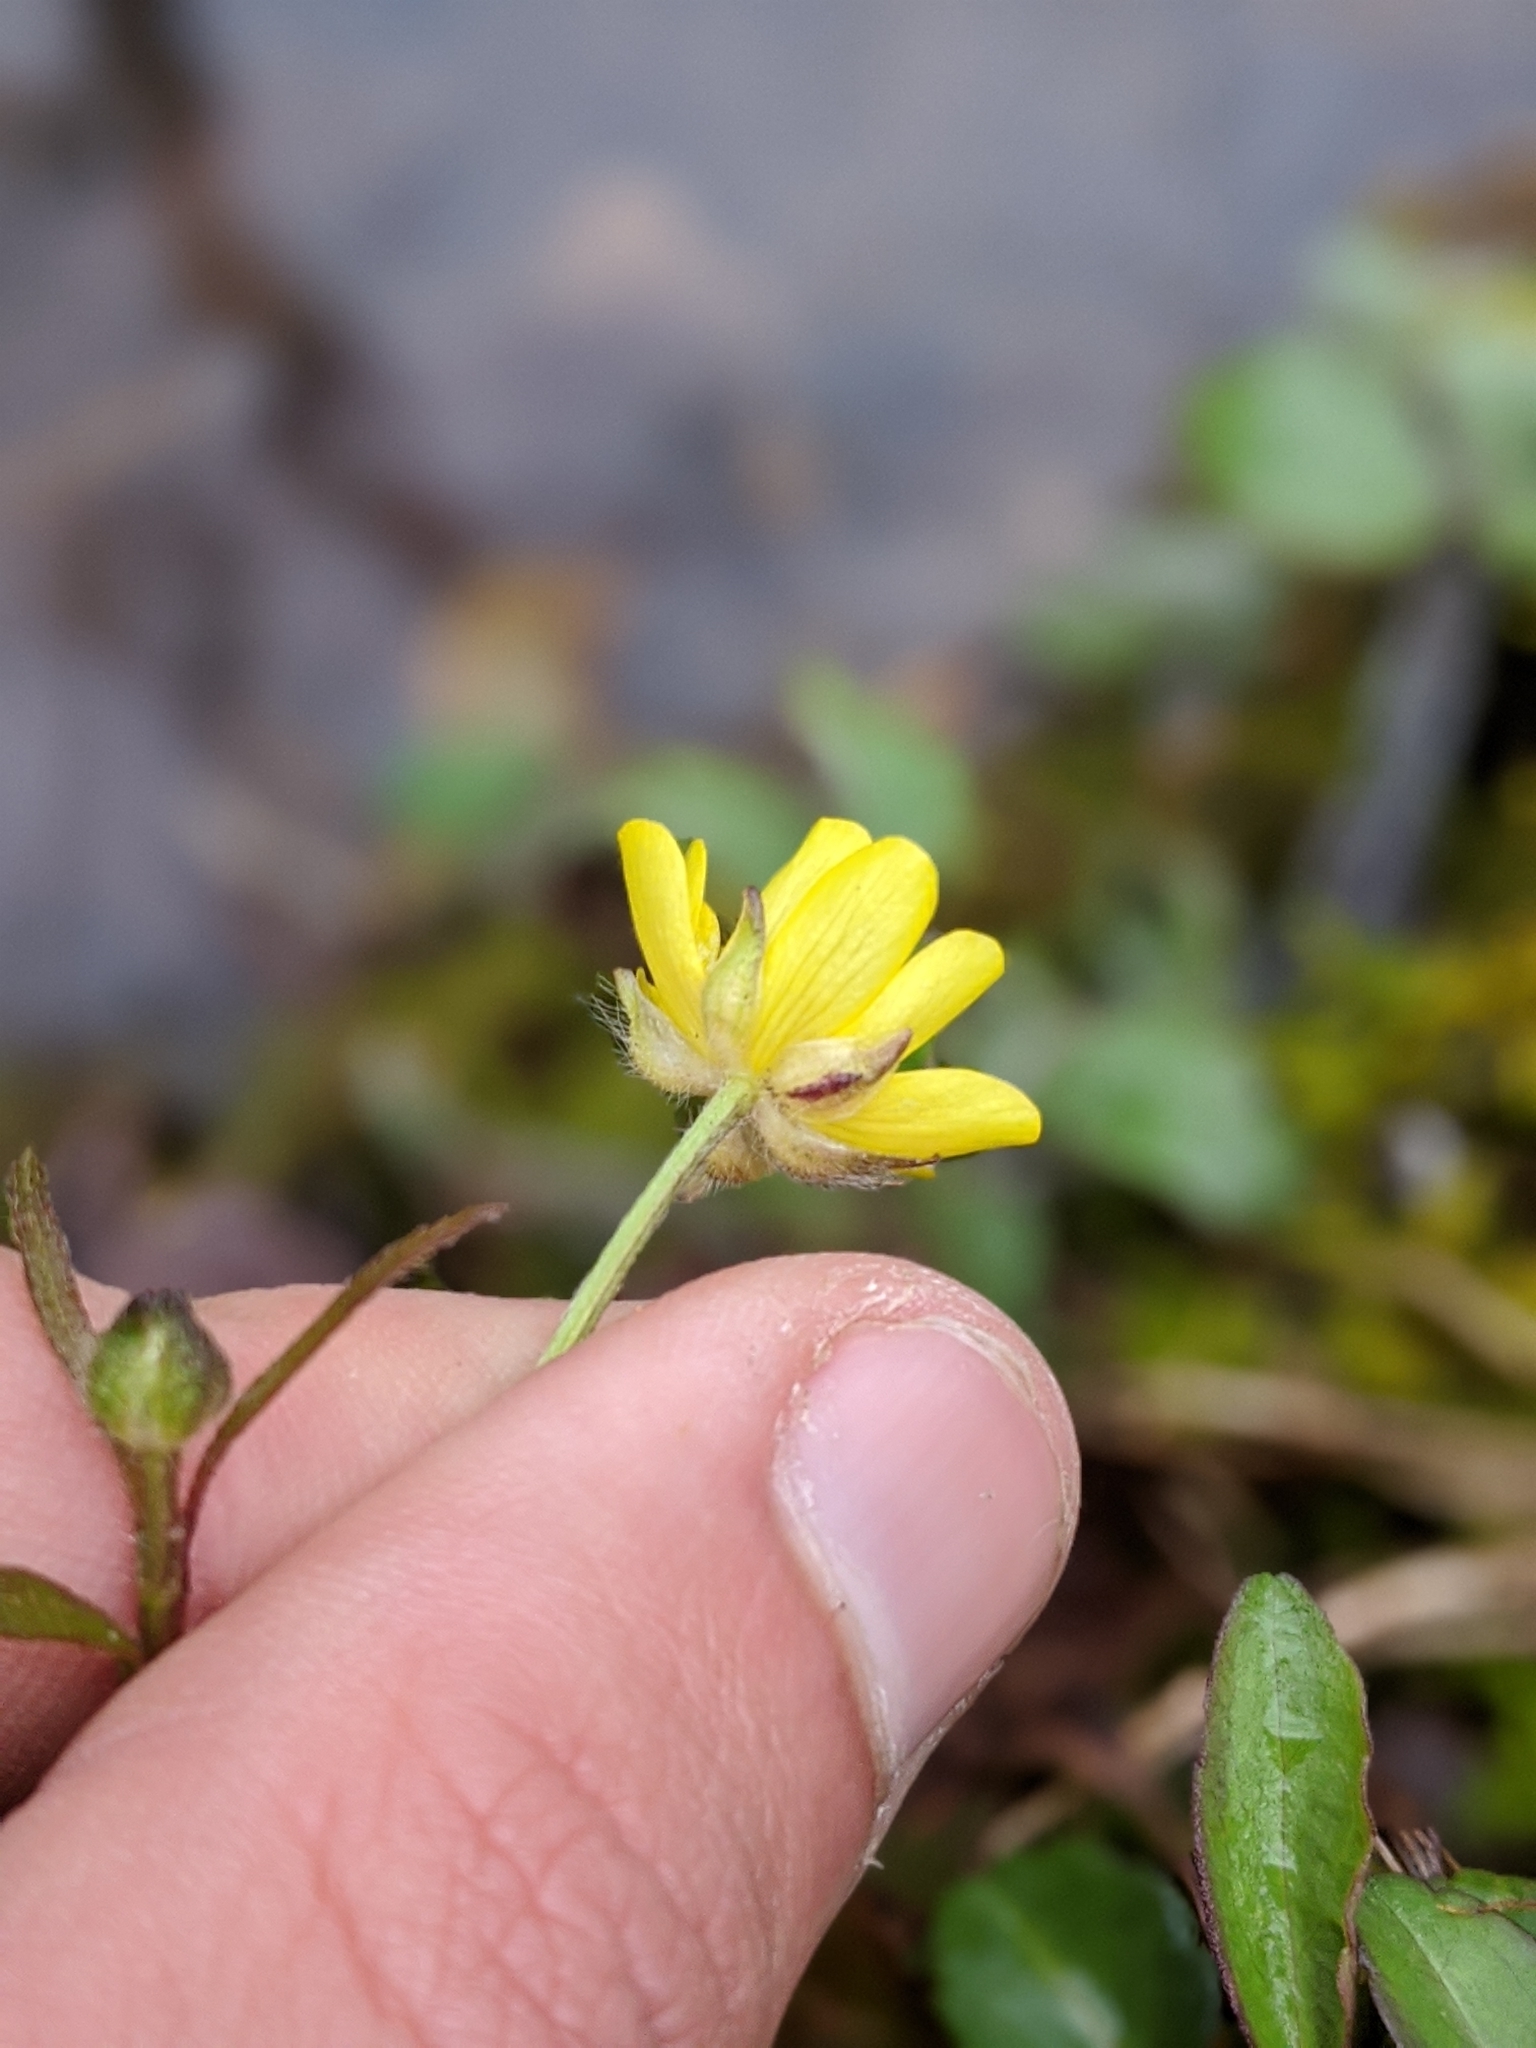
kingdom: Plantae
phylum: Tracheophyta
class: Magnoliopsida
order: Ranunculales
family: Ranunculaceae
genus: Ranunculus
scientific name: Ranunculus hispidus
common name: Bristly buttercup
